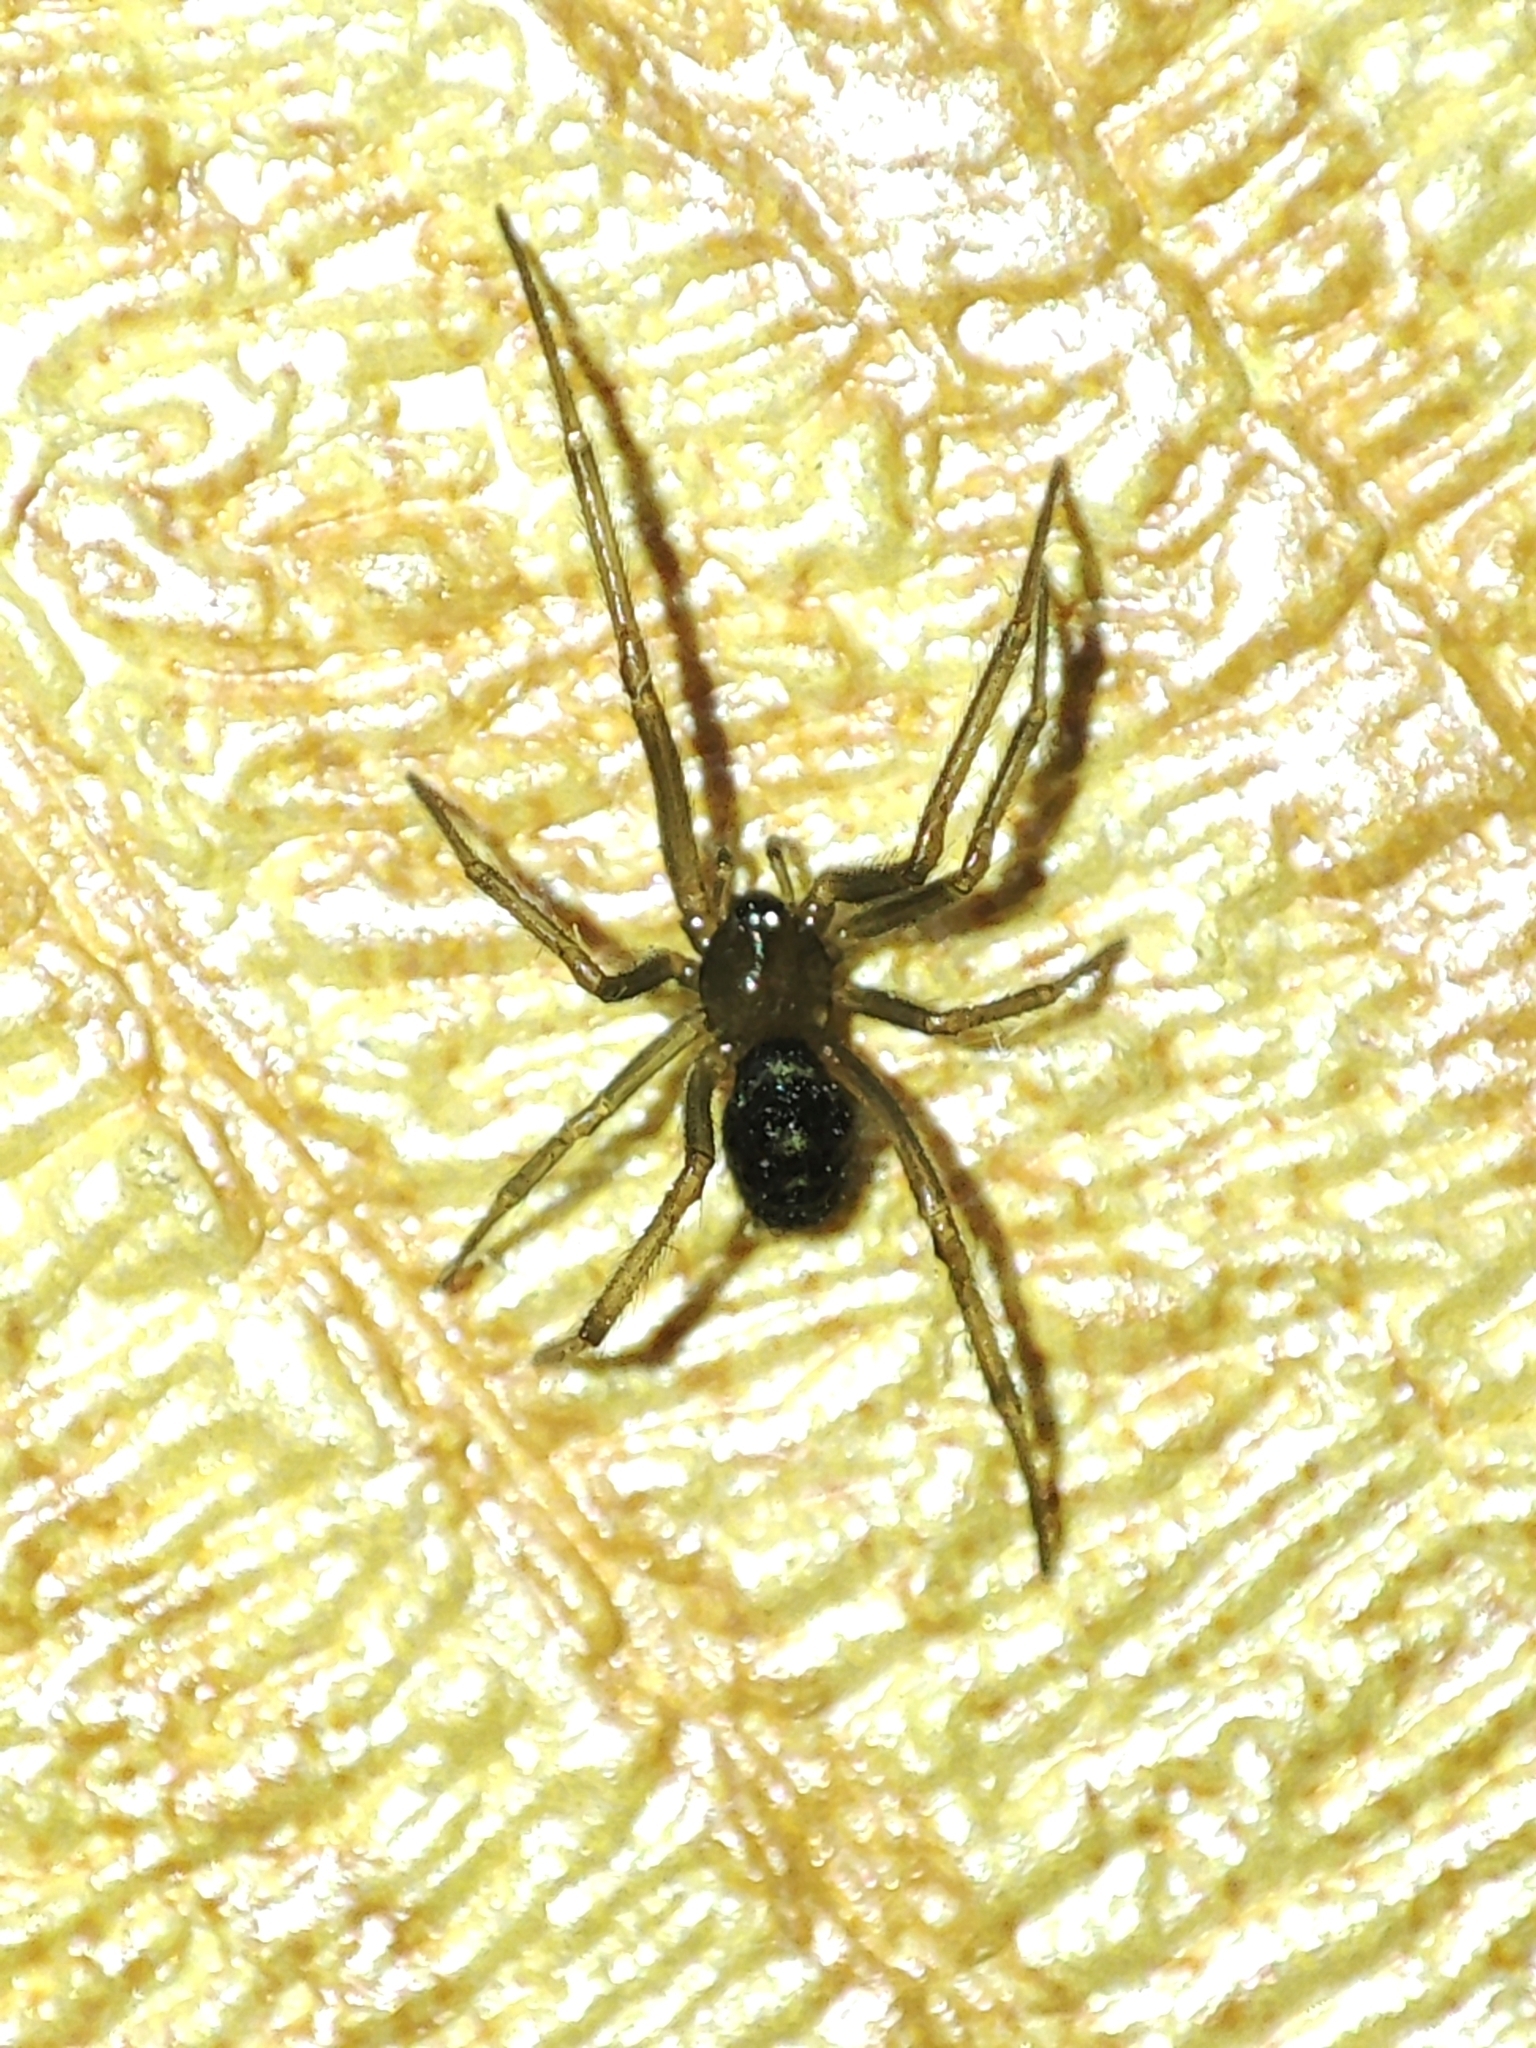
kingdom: Animalia
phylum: Arthropoda
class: Arachnida
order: Araneae
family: Theridiidae
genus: Steatoda
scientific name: Steatoda grossa
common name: False black widow
